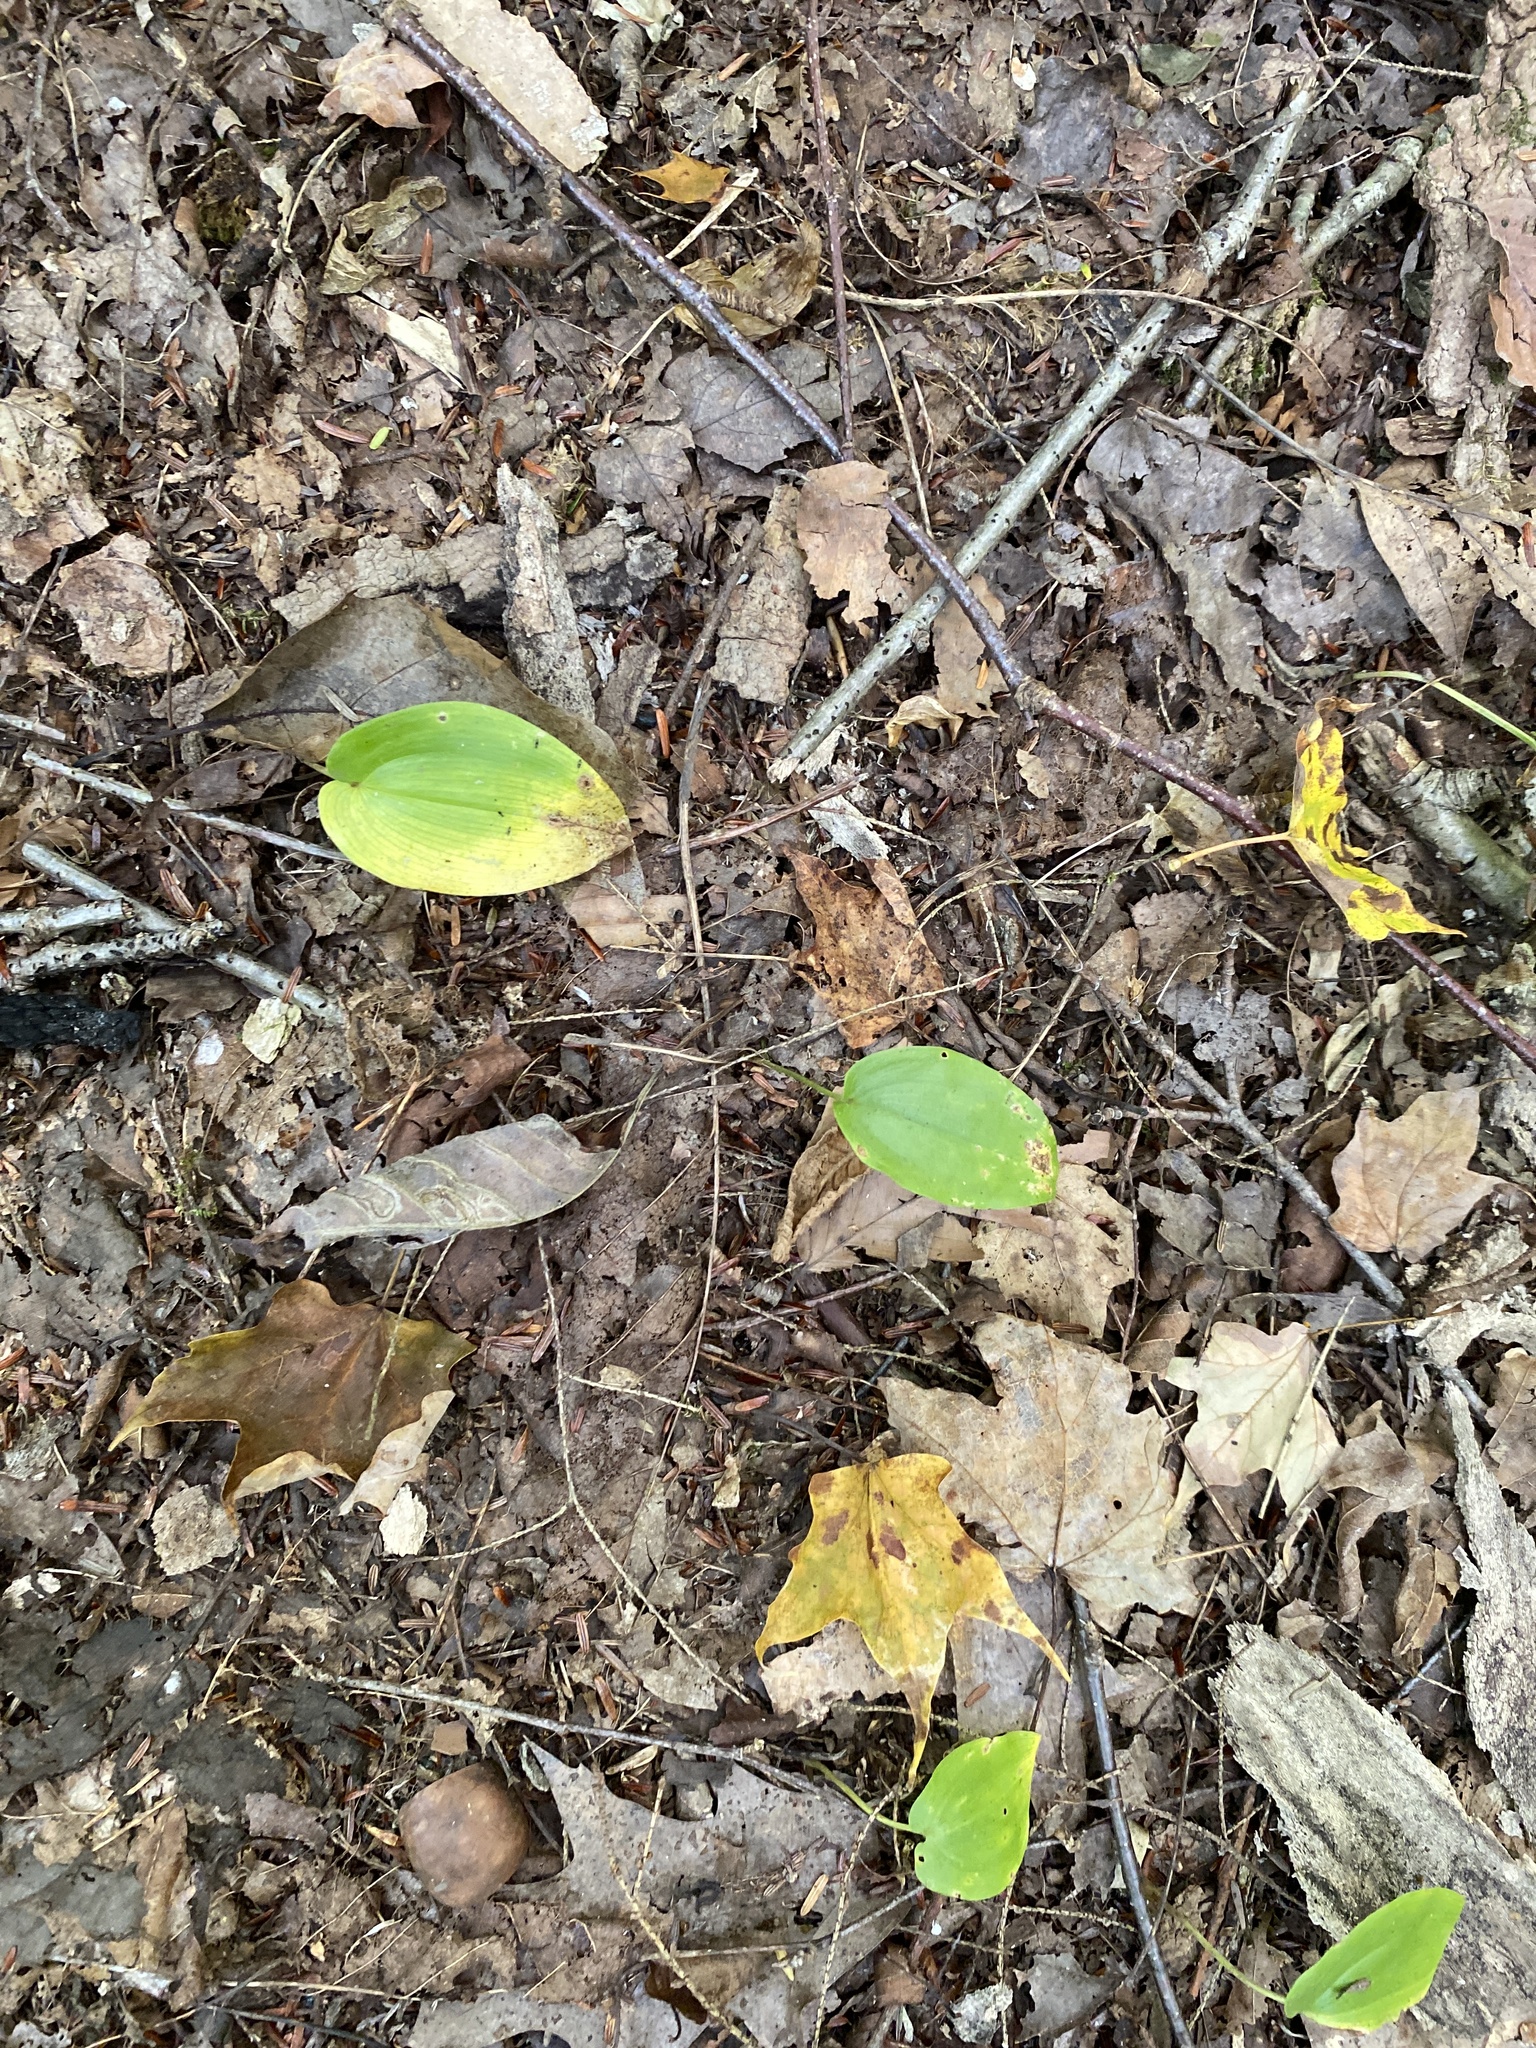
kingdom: Plantae
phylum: Tracheophyta
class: Liliopsida
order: Asparagales
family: Asparagaceae
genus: Maianthemum
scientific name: Maianthemum canadense
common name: False lily-of-the-valley
